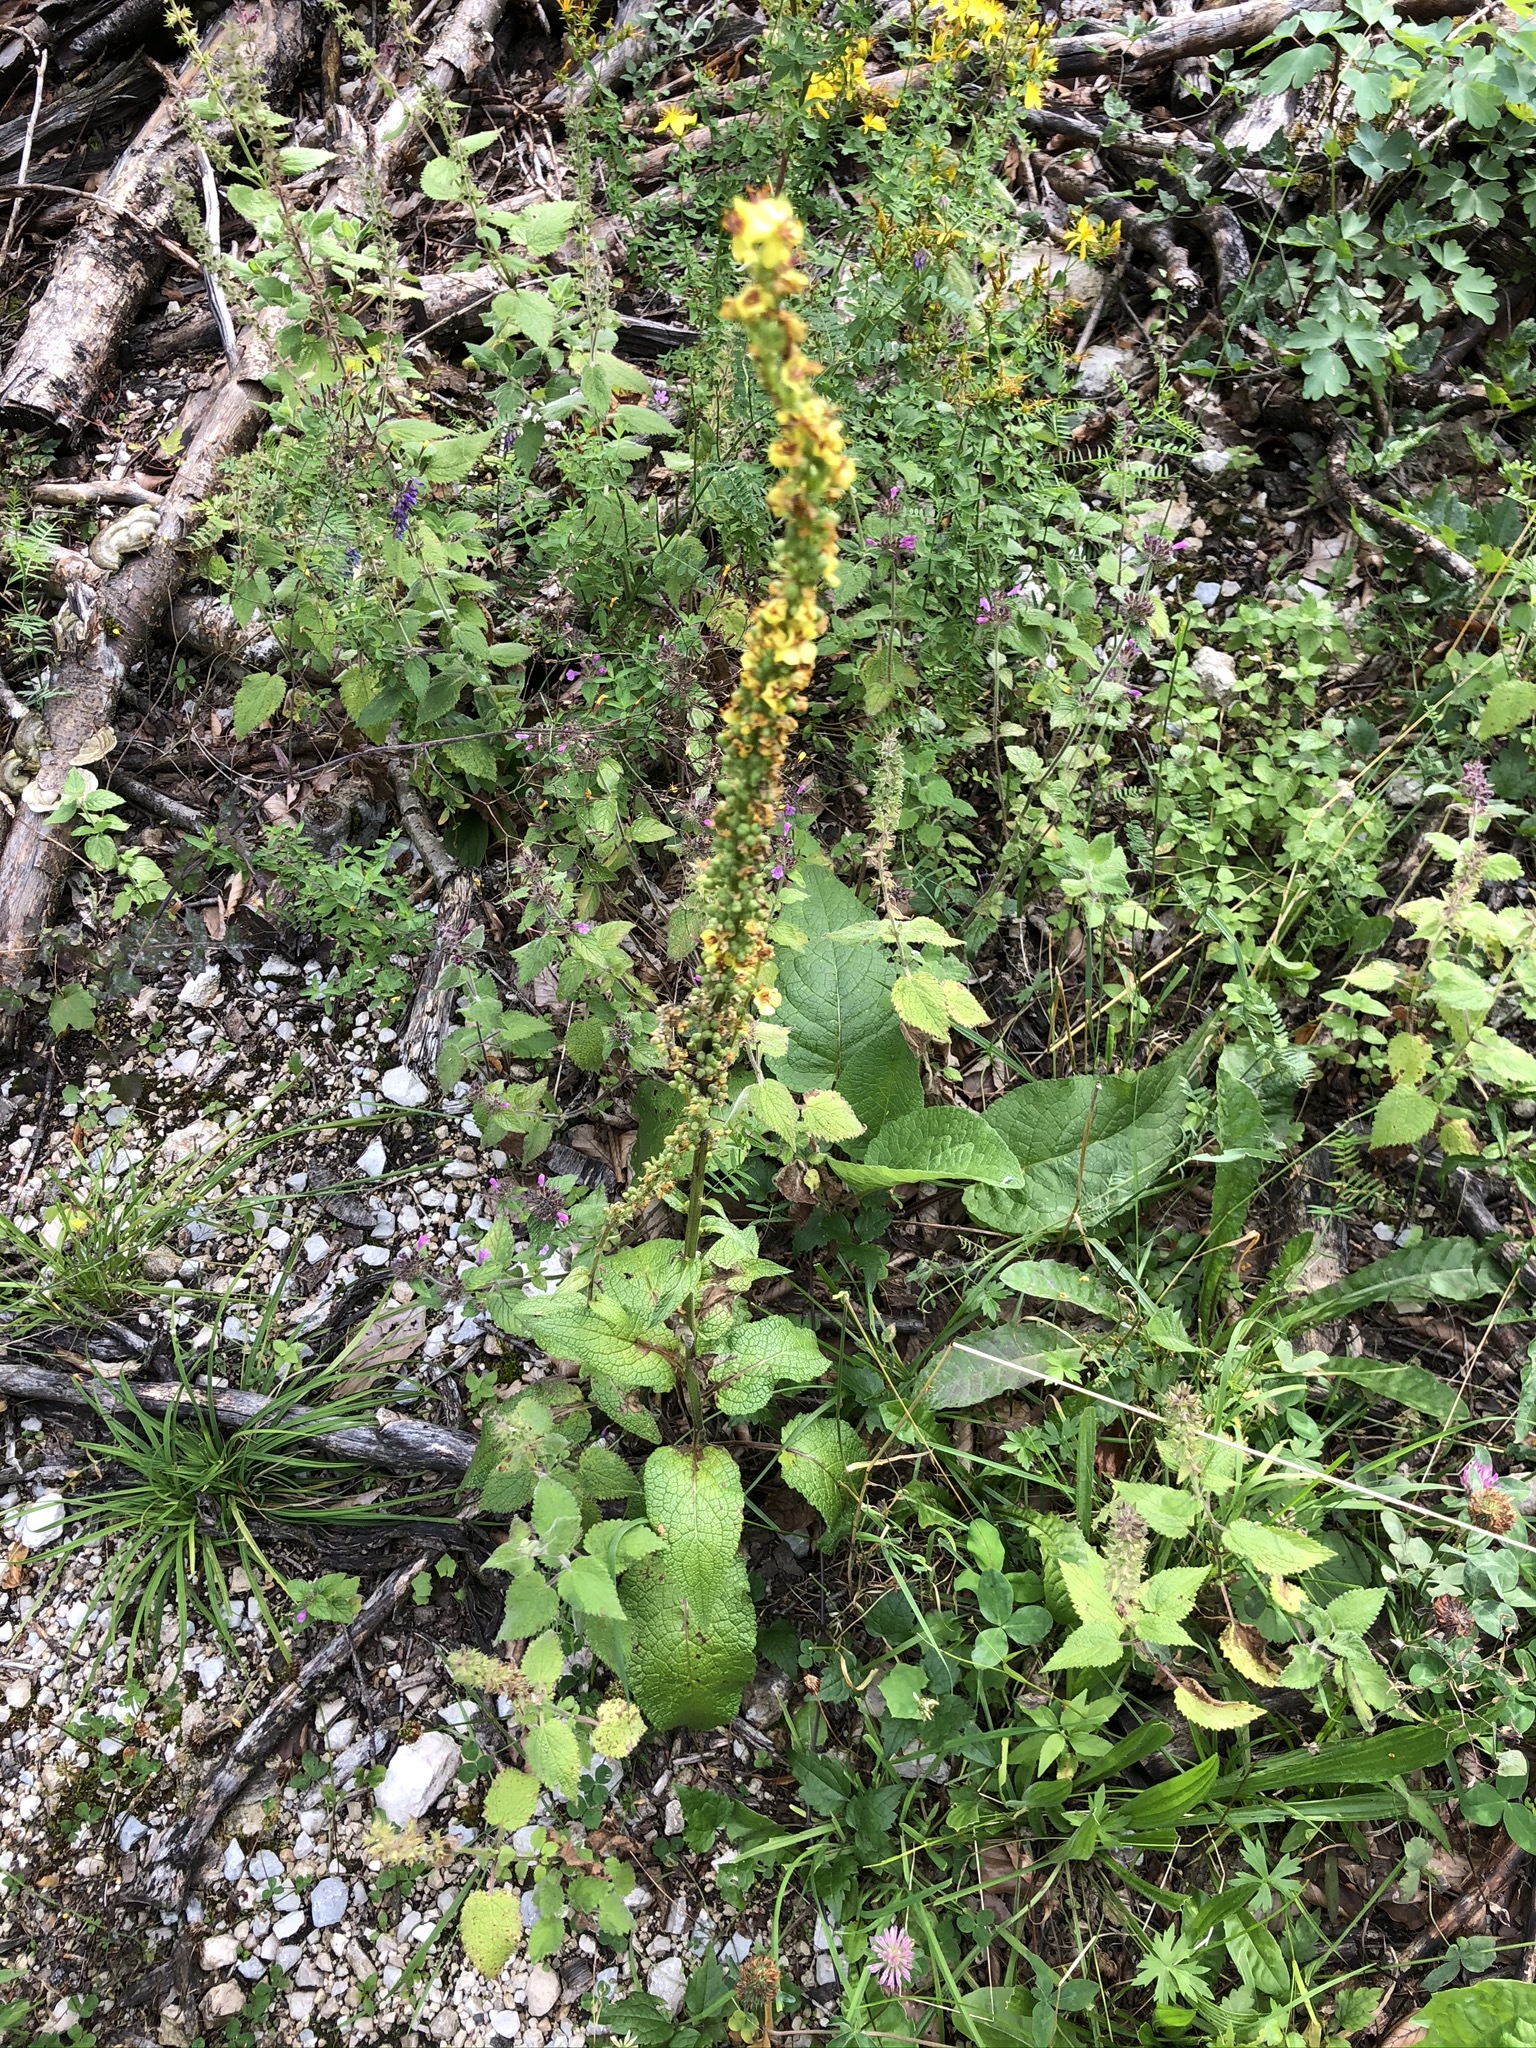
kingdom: Plantae
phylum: Tracheophyta
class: Magnoliopsida
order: Lamiales
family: Scrophulariaceae
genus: Verbascum
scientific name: Verbascum nigrum
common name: Dark mullein
